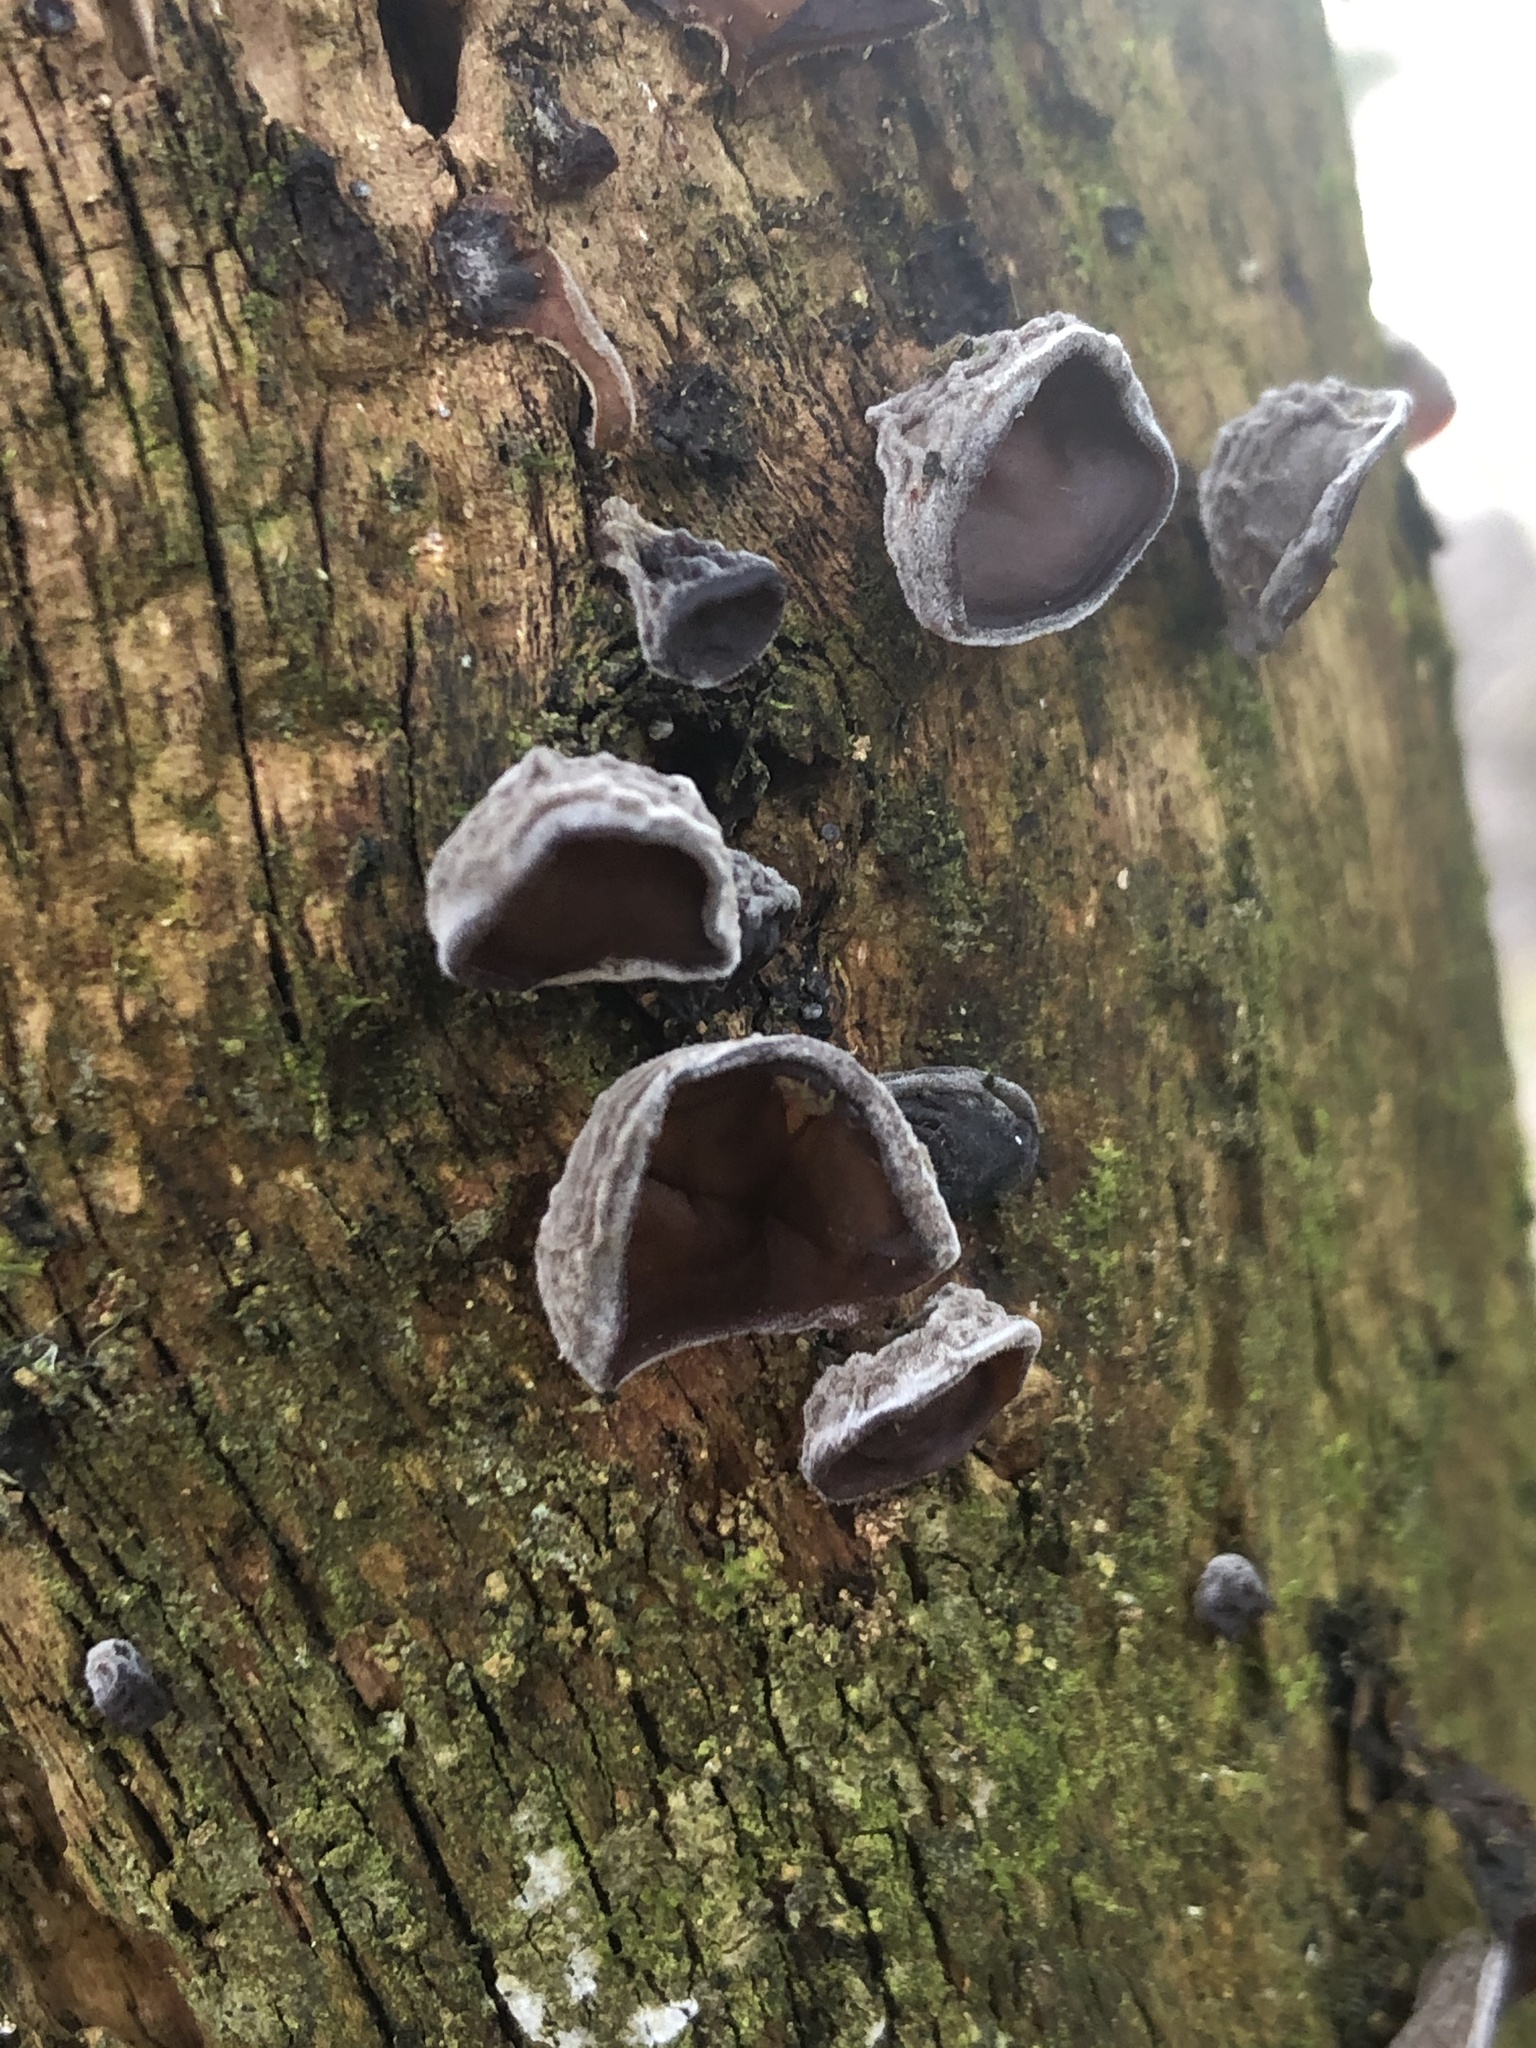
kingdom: Fungi
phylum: Basidiomycota
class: Agaricomycetes
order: Auriculariales
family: Auriculariaceae
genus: Auricularia
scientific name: Auricularia auricula-judae
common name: Jelly ear
